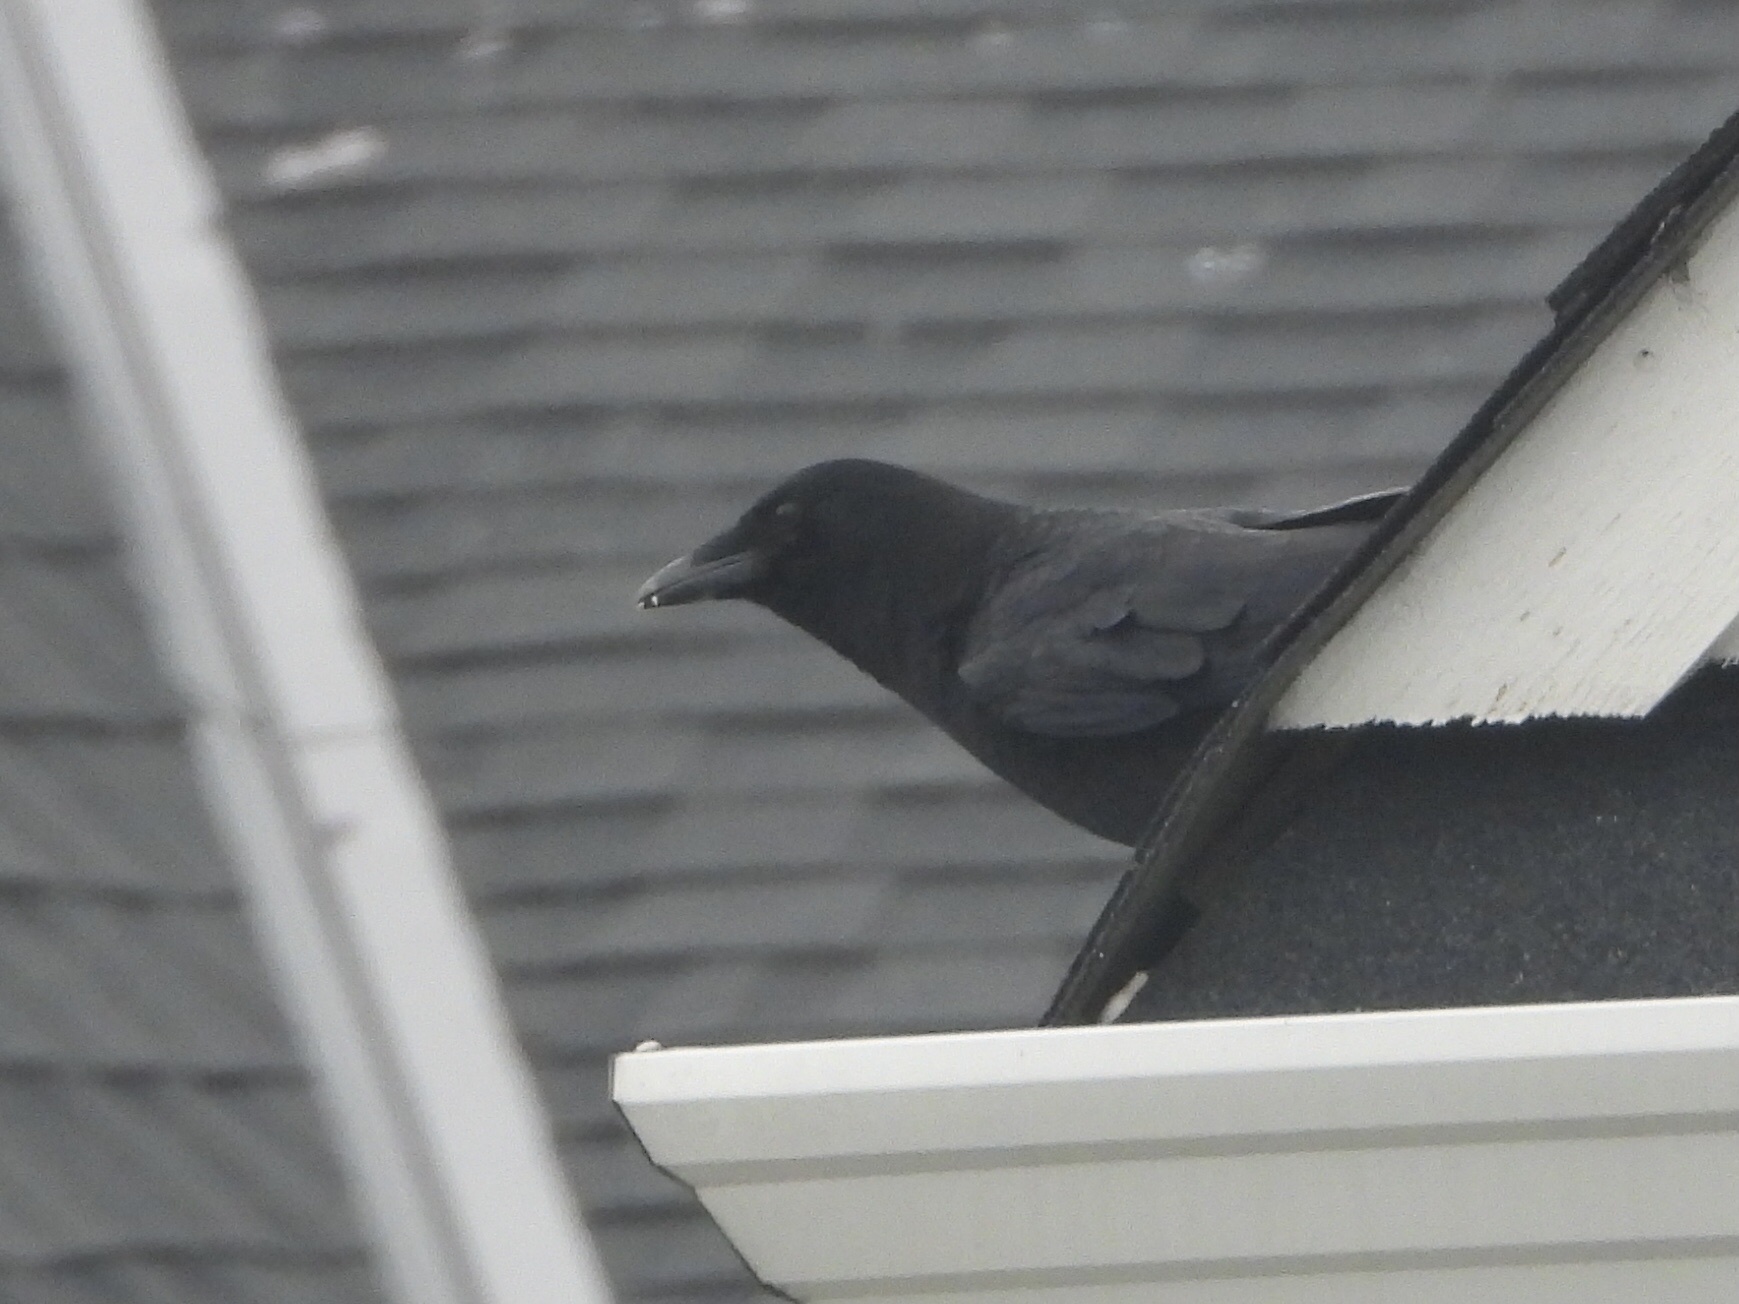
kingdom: Animalia
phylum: Chordata
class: Aves
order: Passeriformes
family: Corvidae
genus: Corvus
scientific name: Corvus brachyrhynchos
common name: American crow
